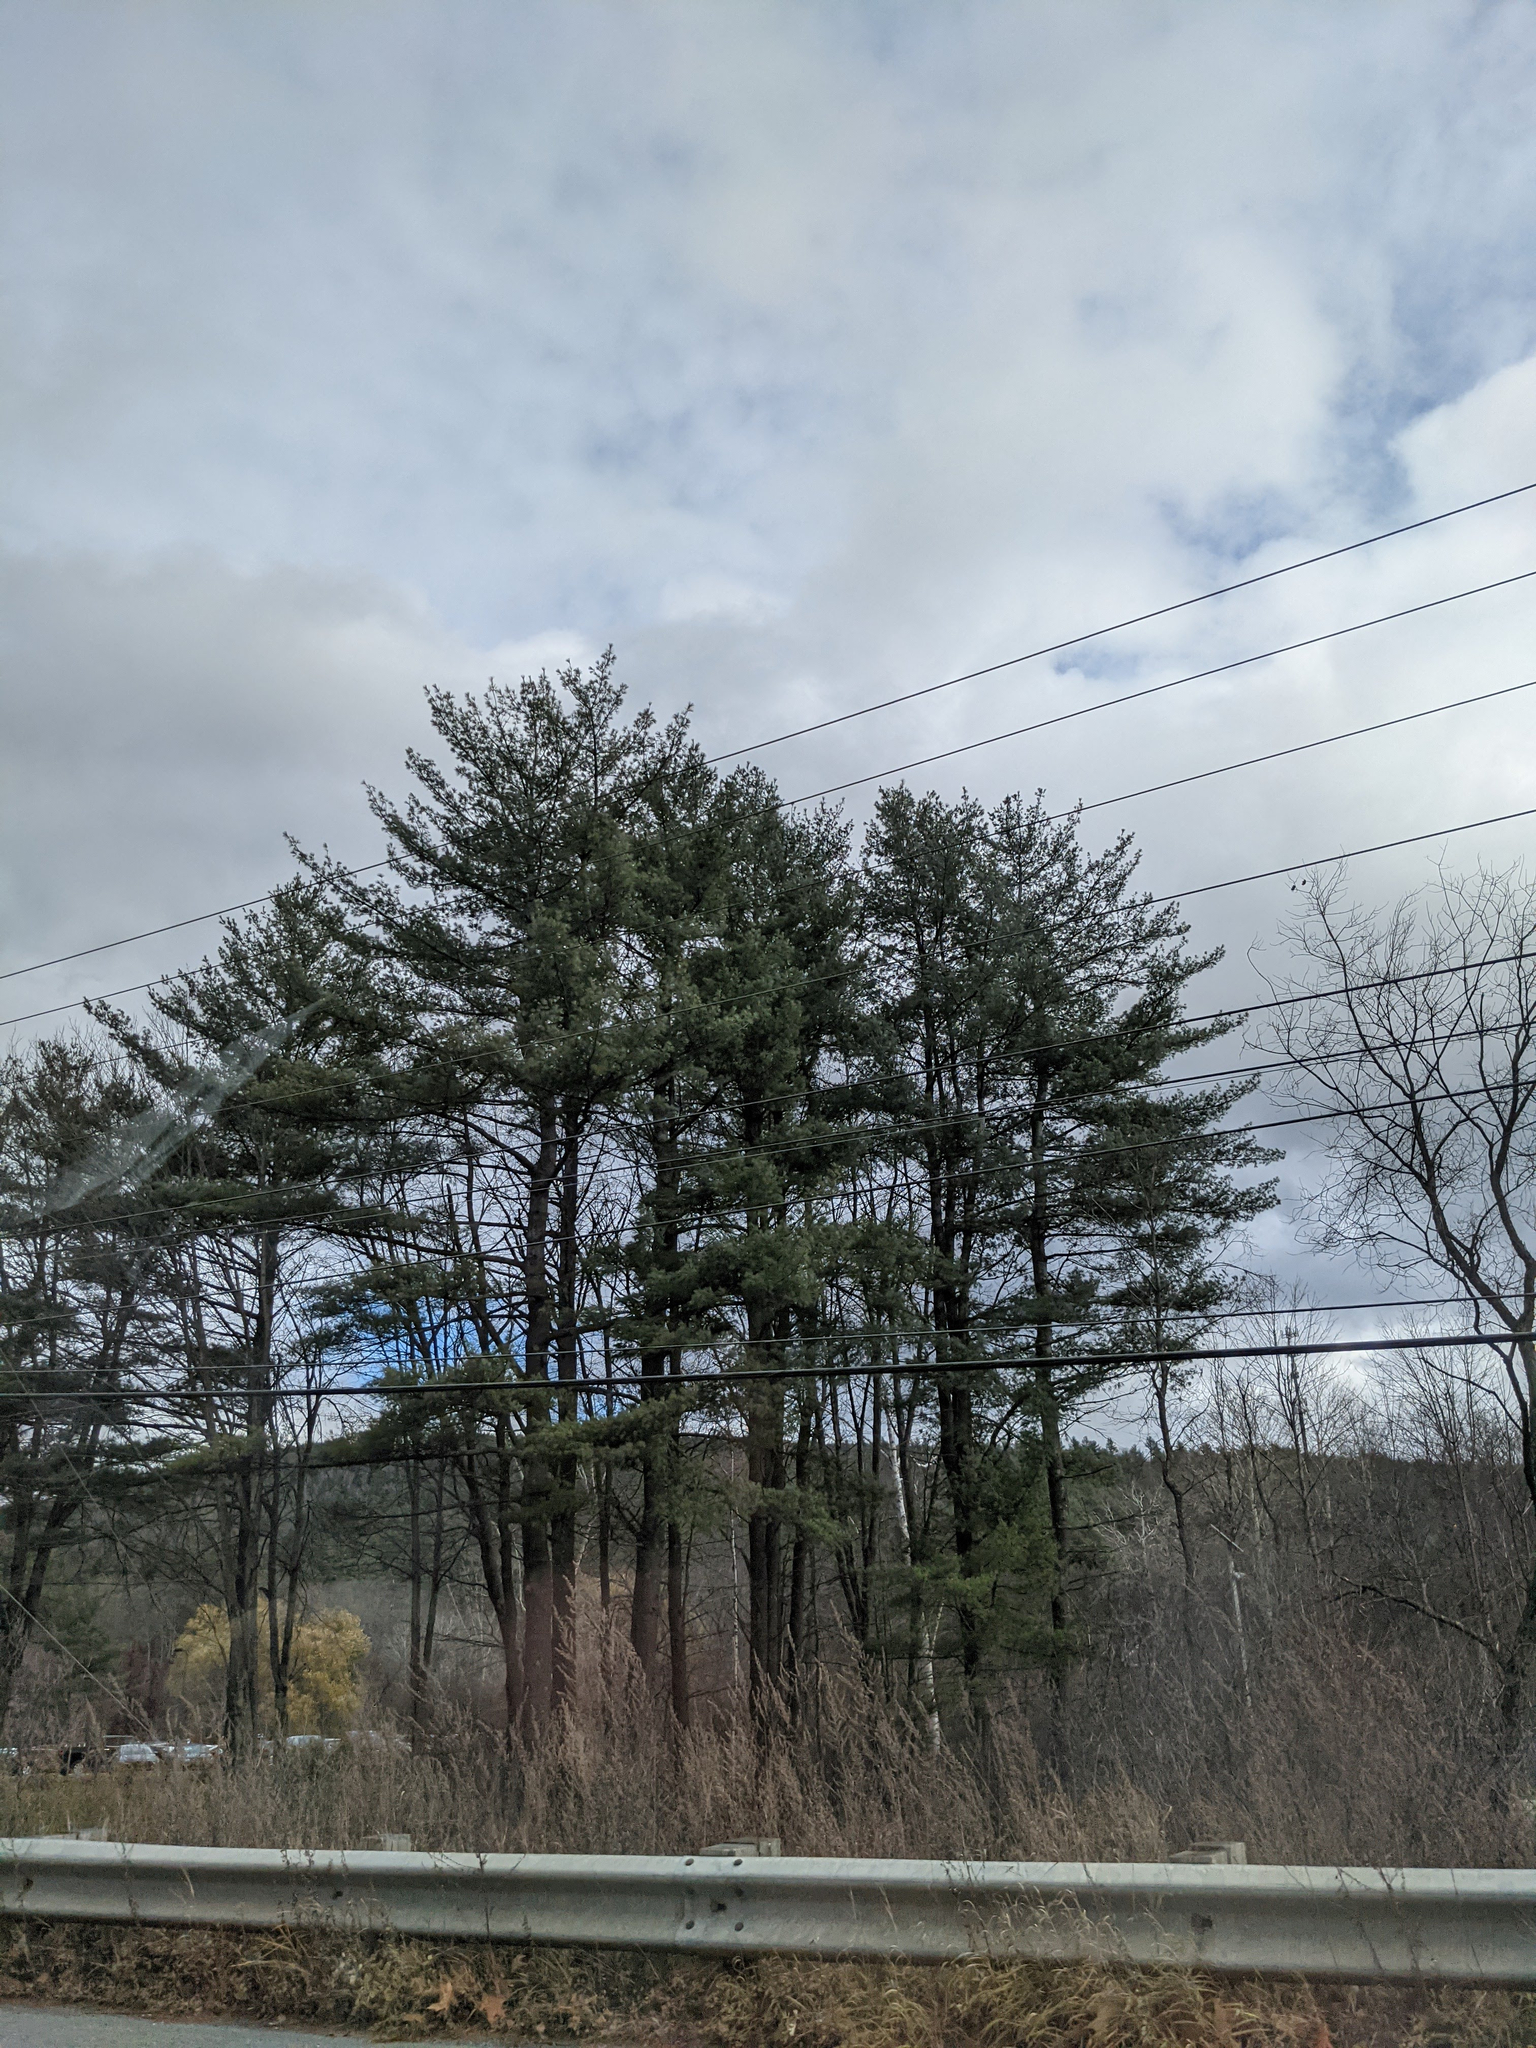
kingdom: Plantae
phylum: Tracheophyta
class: Pinopsida
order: Pinales
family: Pinaceae
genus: Pinus
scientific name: Pinus strobus
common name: Weymouth pine
